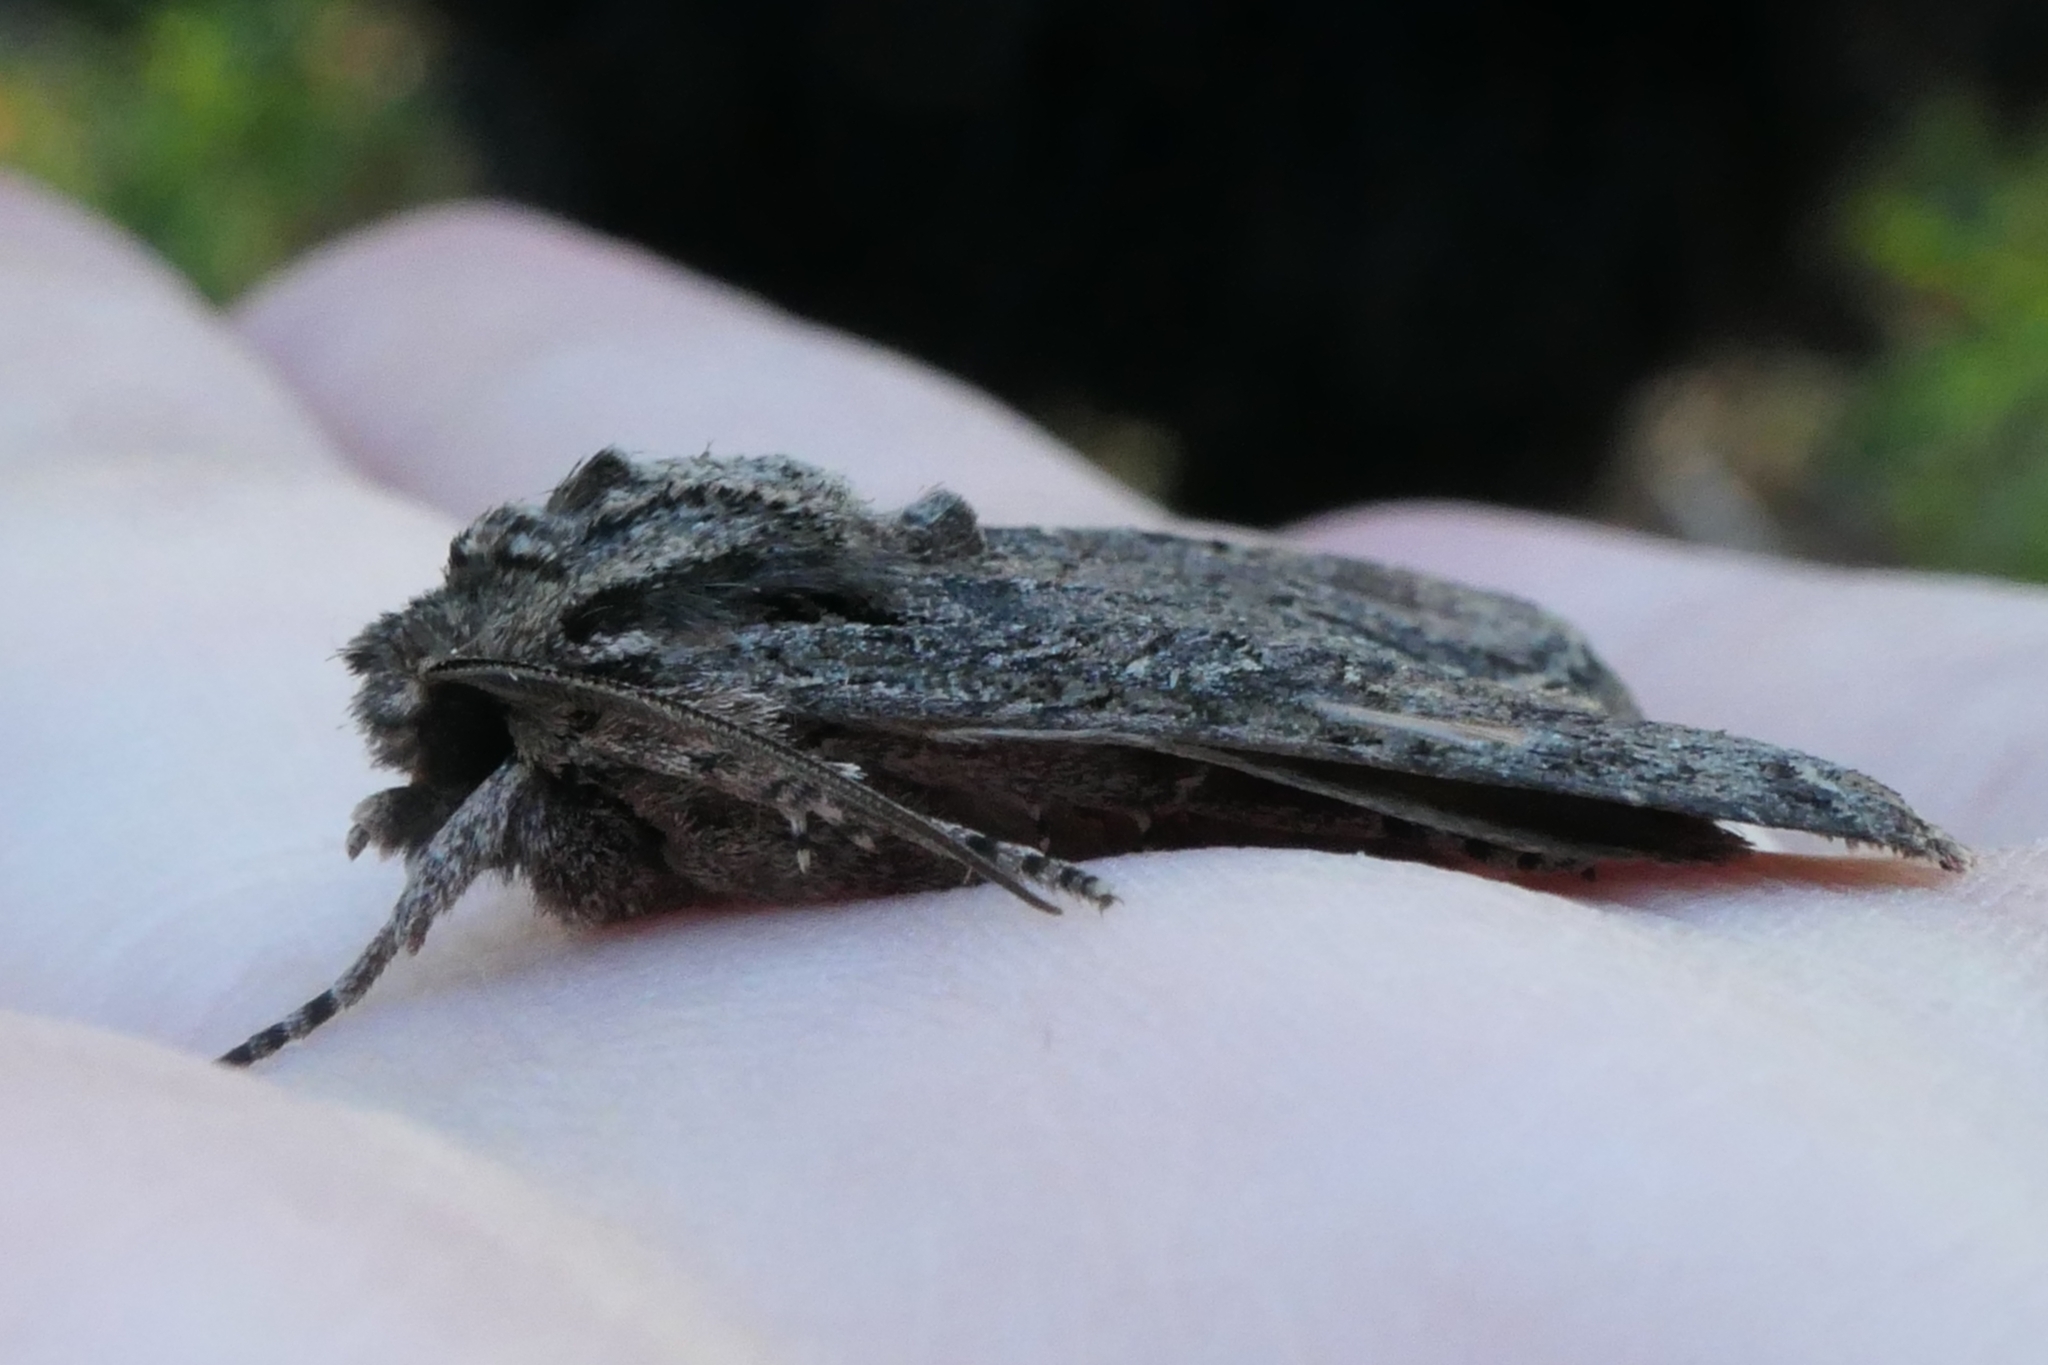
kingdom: Animalia
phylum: Arthropoda
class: Insecta
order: Lepidoptera
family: Noctuidae
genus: Ichneutica
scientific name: Ichneutica mutans
